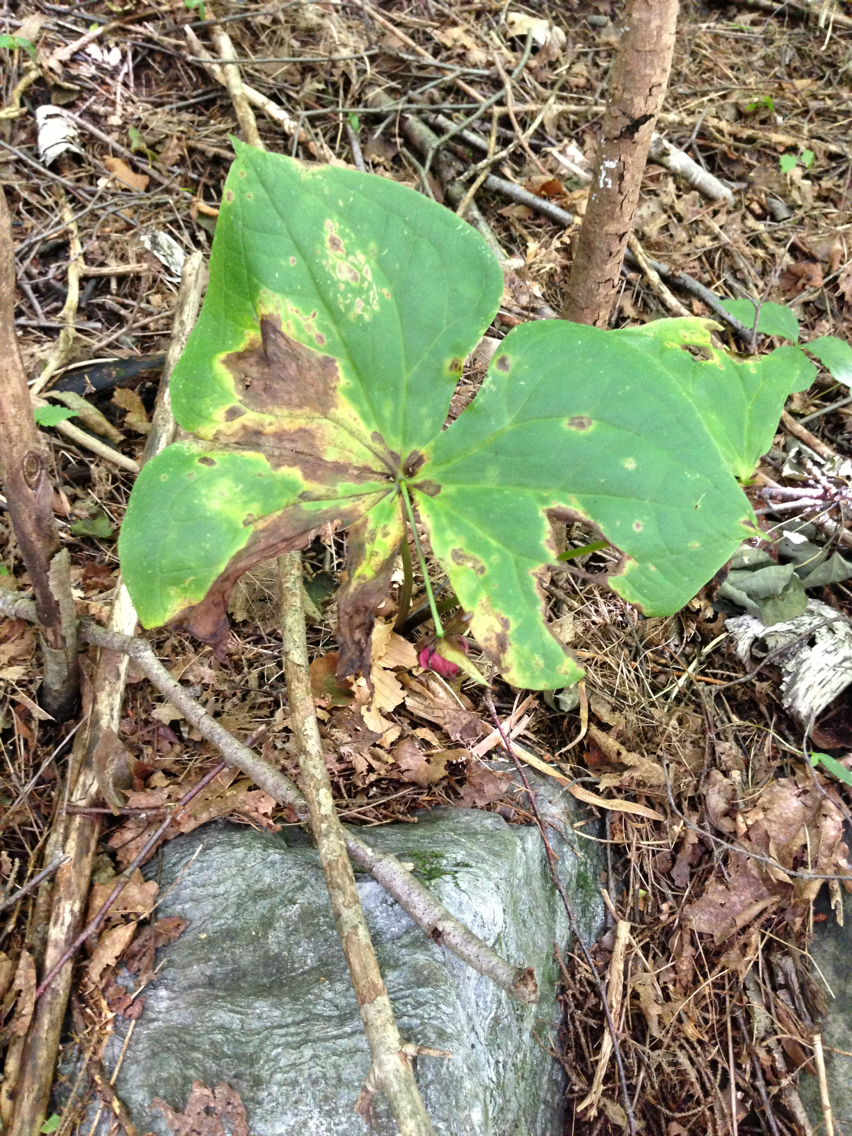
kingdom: Plantae
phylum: Tracheophyta
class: Liliopsida
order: Liliales
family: Melanthiaceae
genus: Trillium
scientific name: Trillium erectum
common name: Purple trillium
